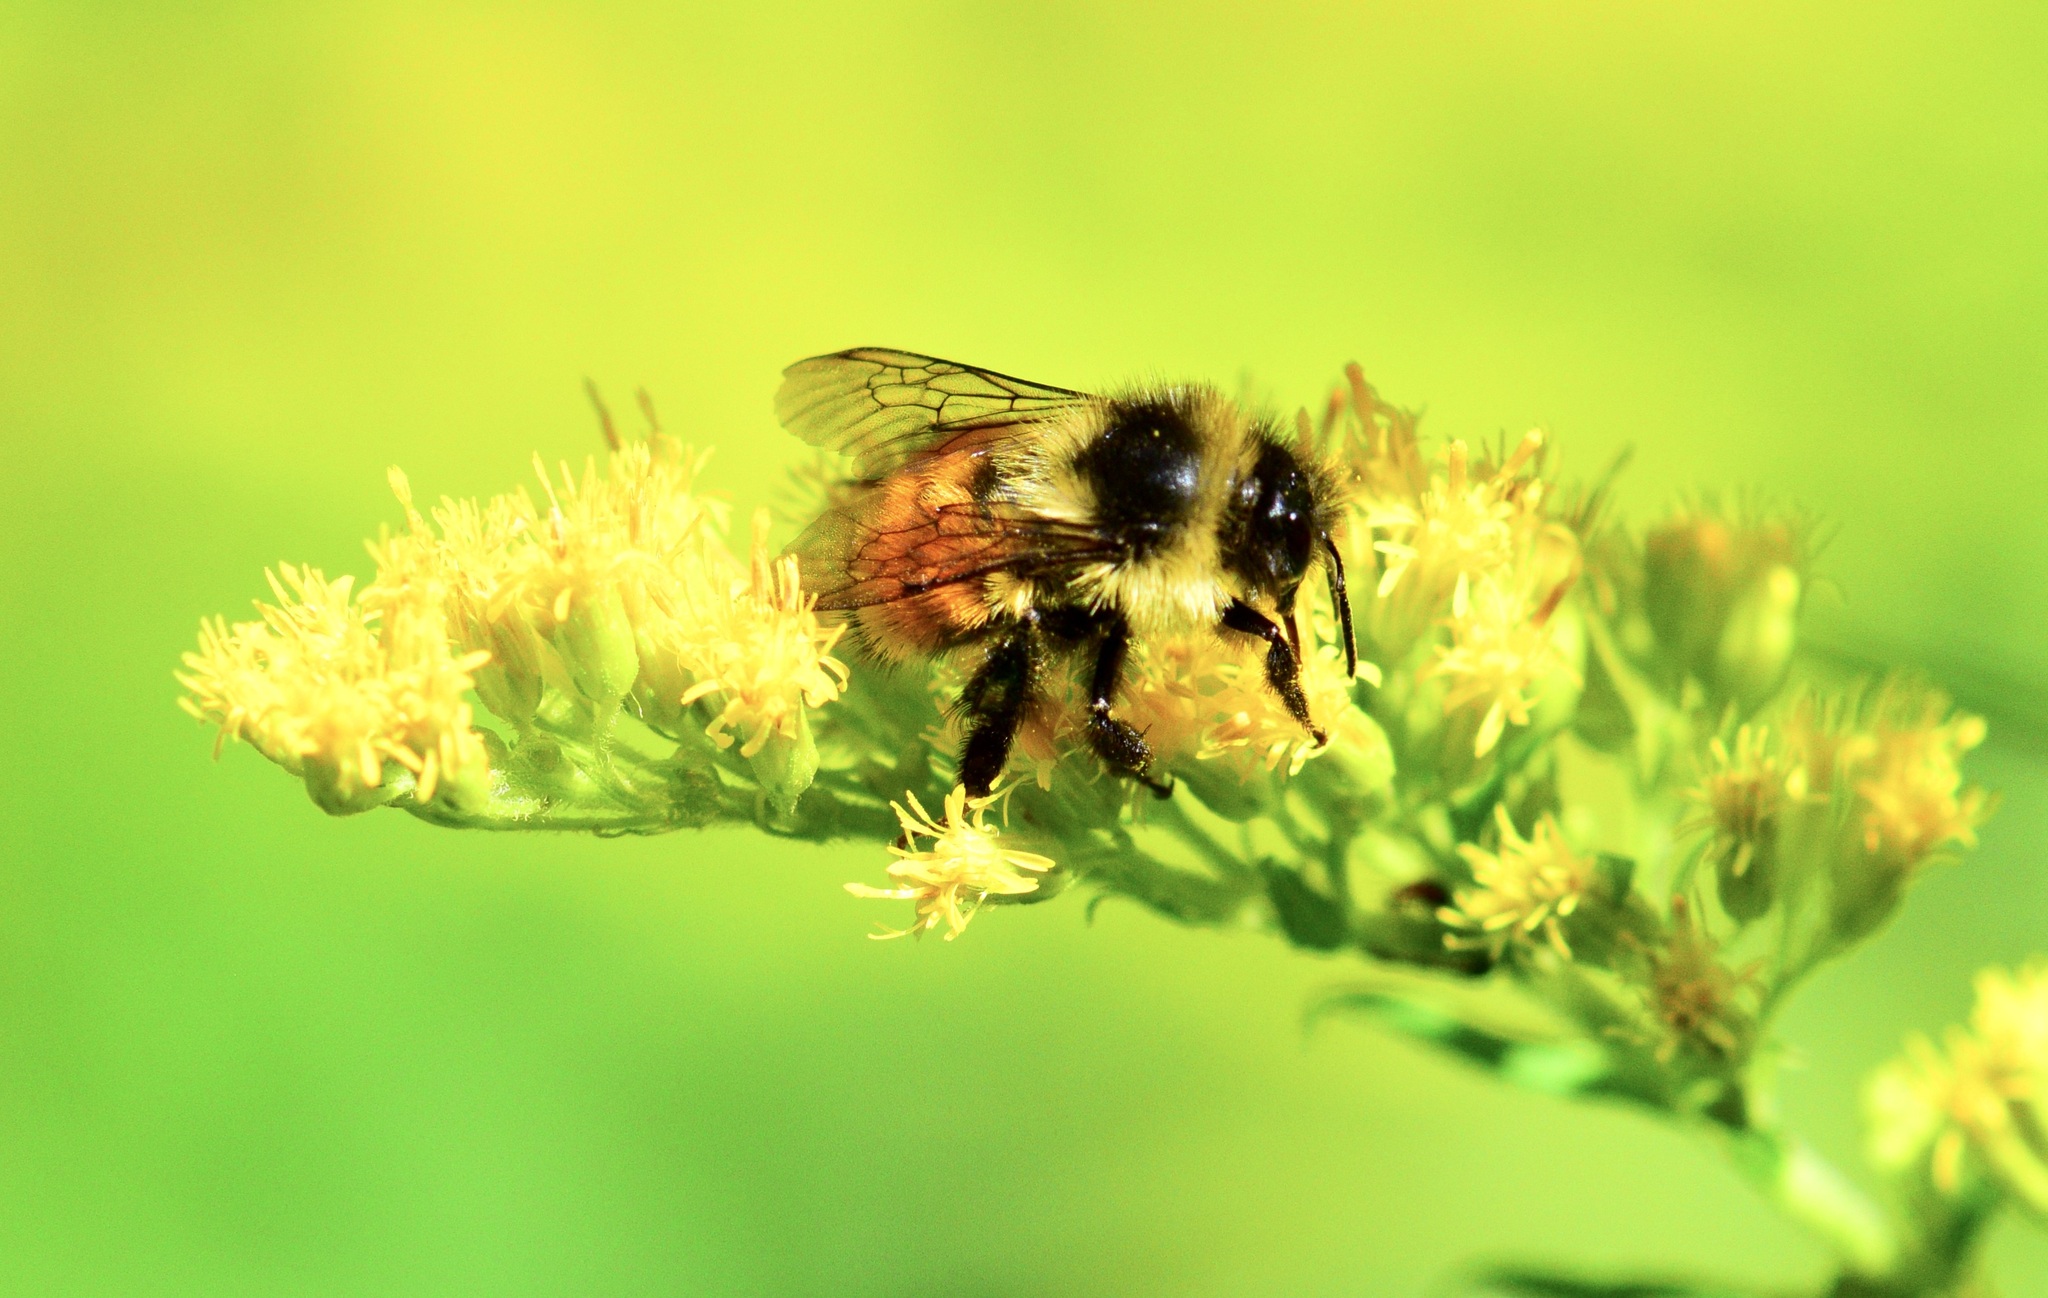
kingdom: Animalia
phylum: Arthropoda
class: Insecta
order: Hymenoptera
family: Apidae
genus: Bombus
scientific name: Bombus ternarius
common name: Tri-colored bumble bee
